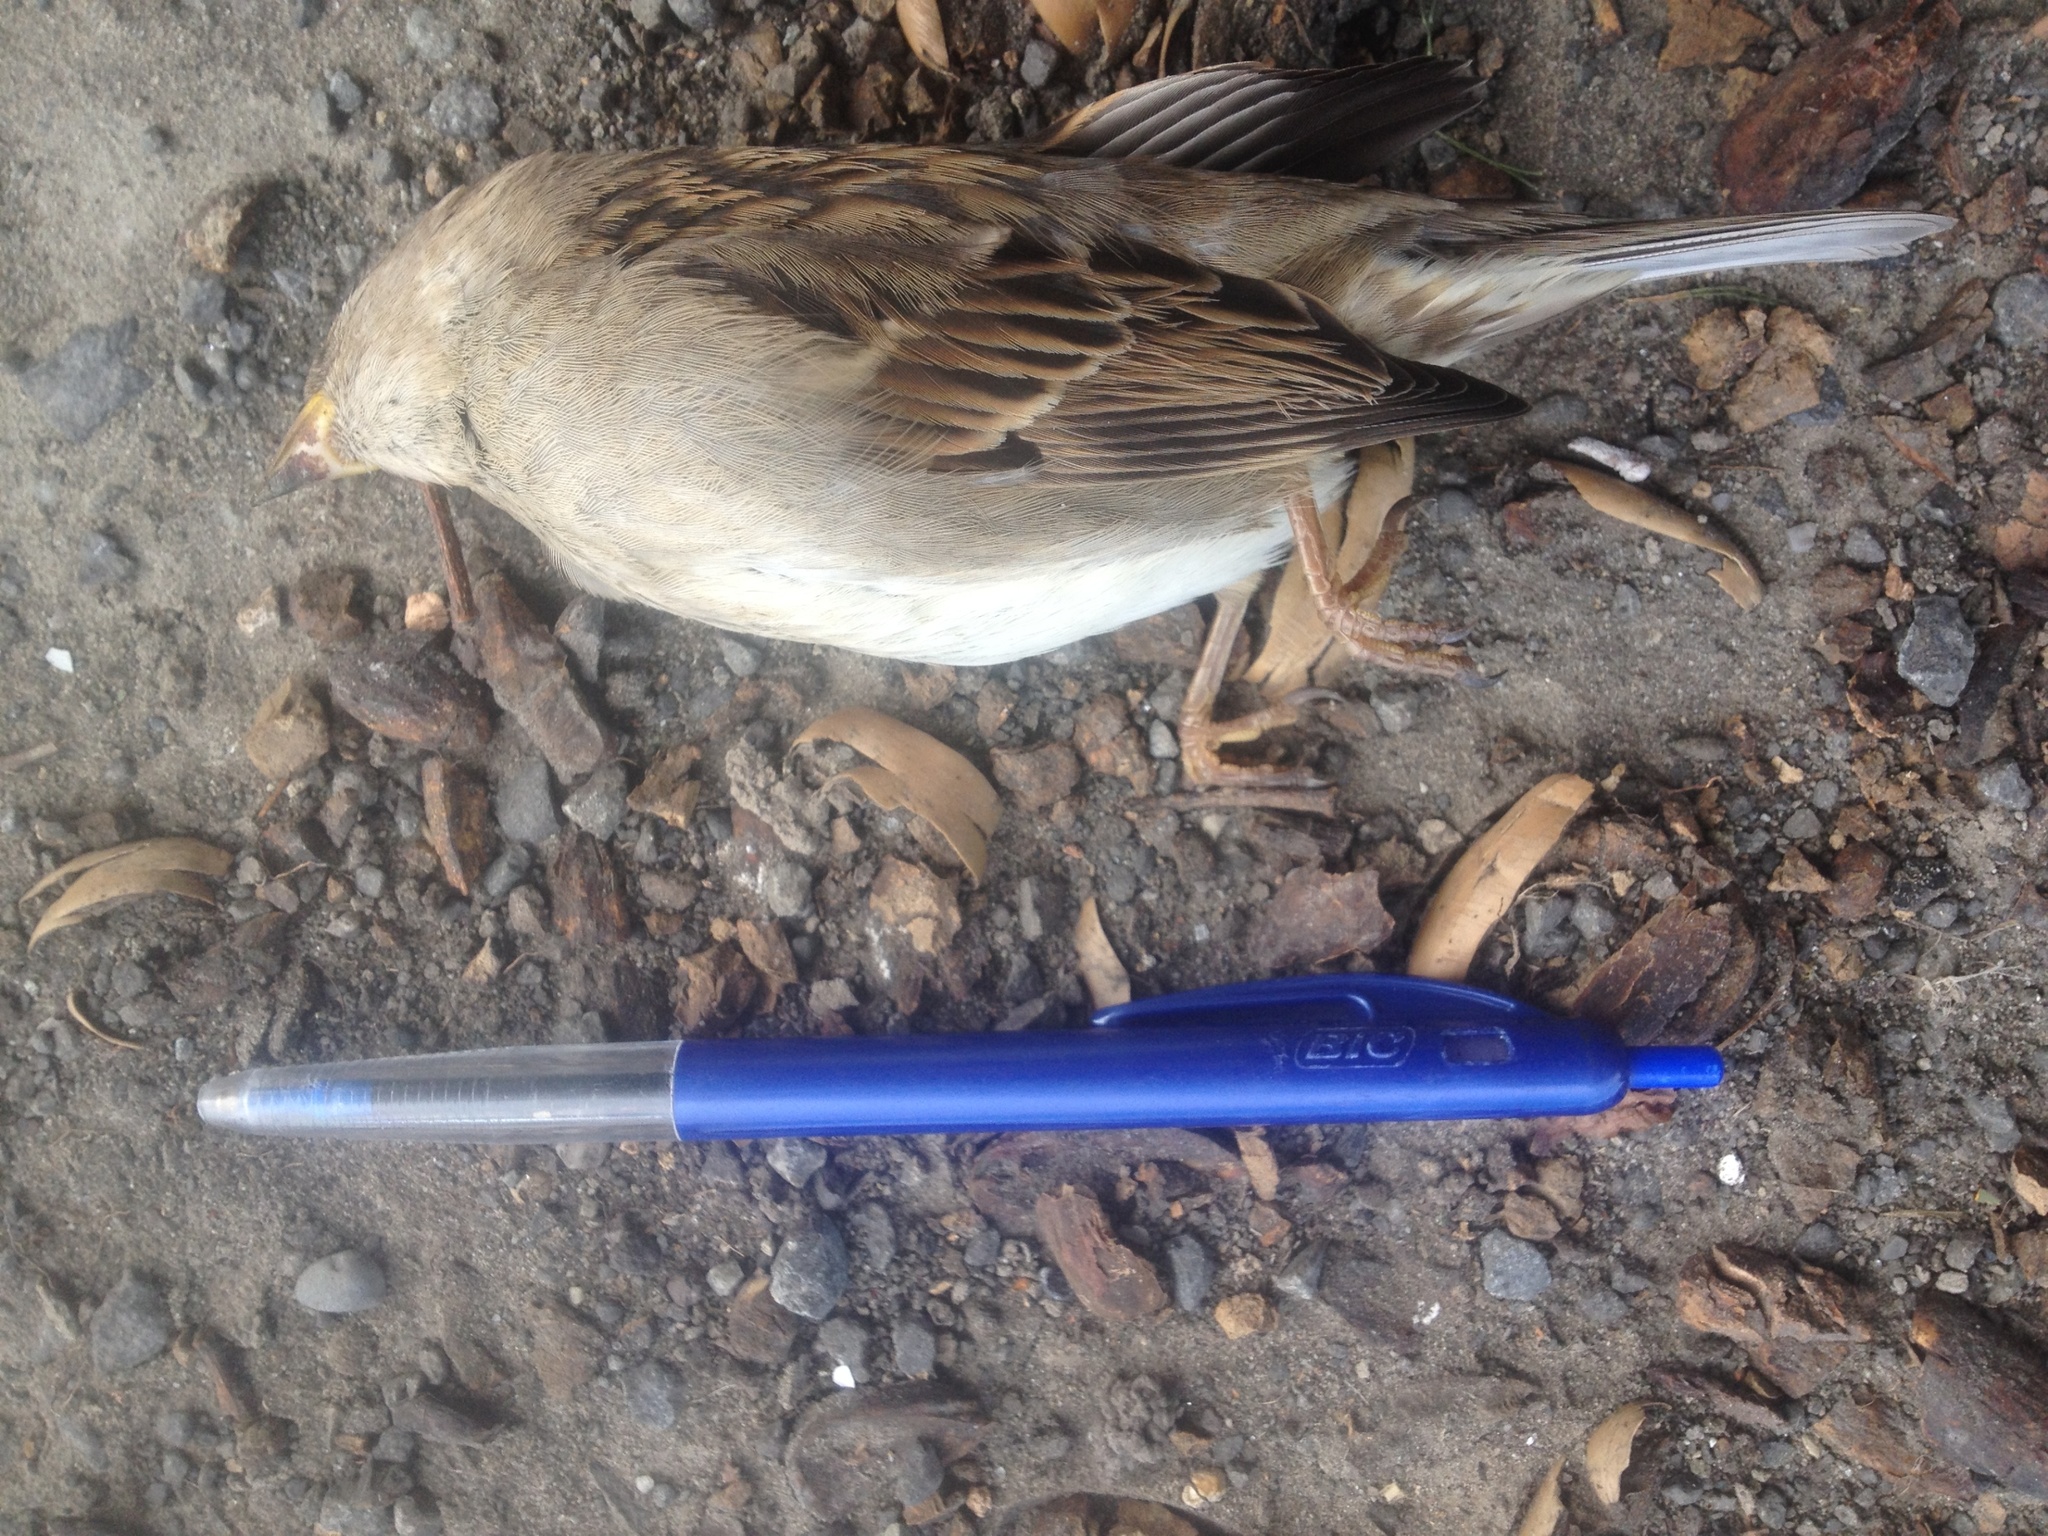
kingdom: Animalia
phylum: Chordata
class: Aves
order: Passeriformes
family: Passeridae
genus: Passer
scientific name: Passer domesticus
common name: House sparrow
